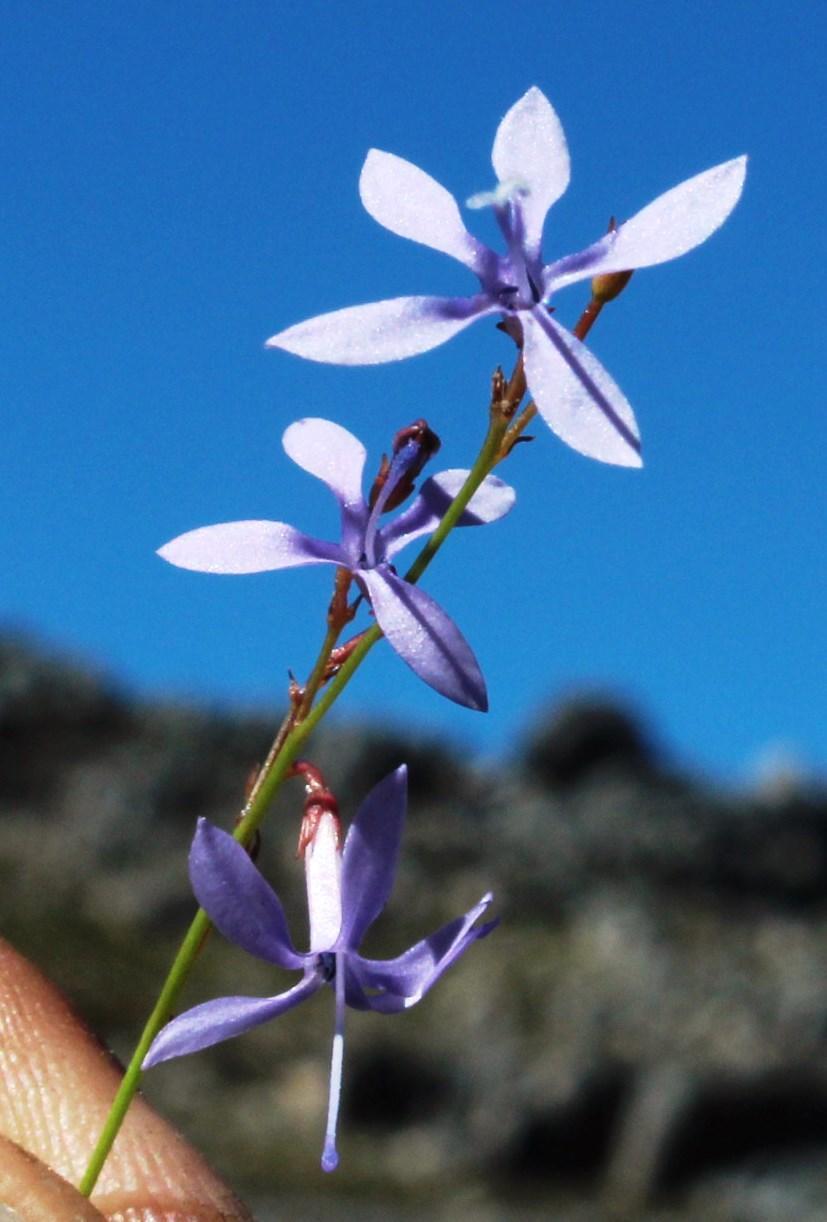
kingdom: Plantae
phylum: Tracheophyta
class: Magnoliopsida
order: Asterales
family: Campanulaceae
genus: Prismatocarpus
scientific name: Prismatocarpus diffusus
